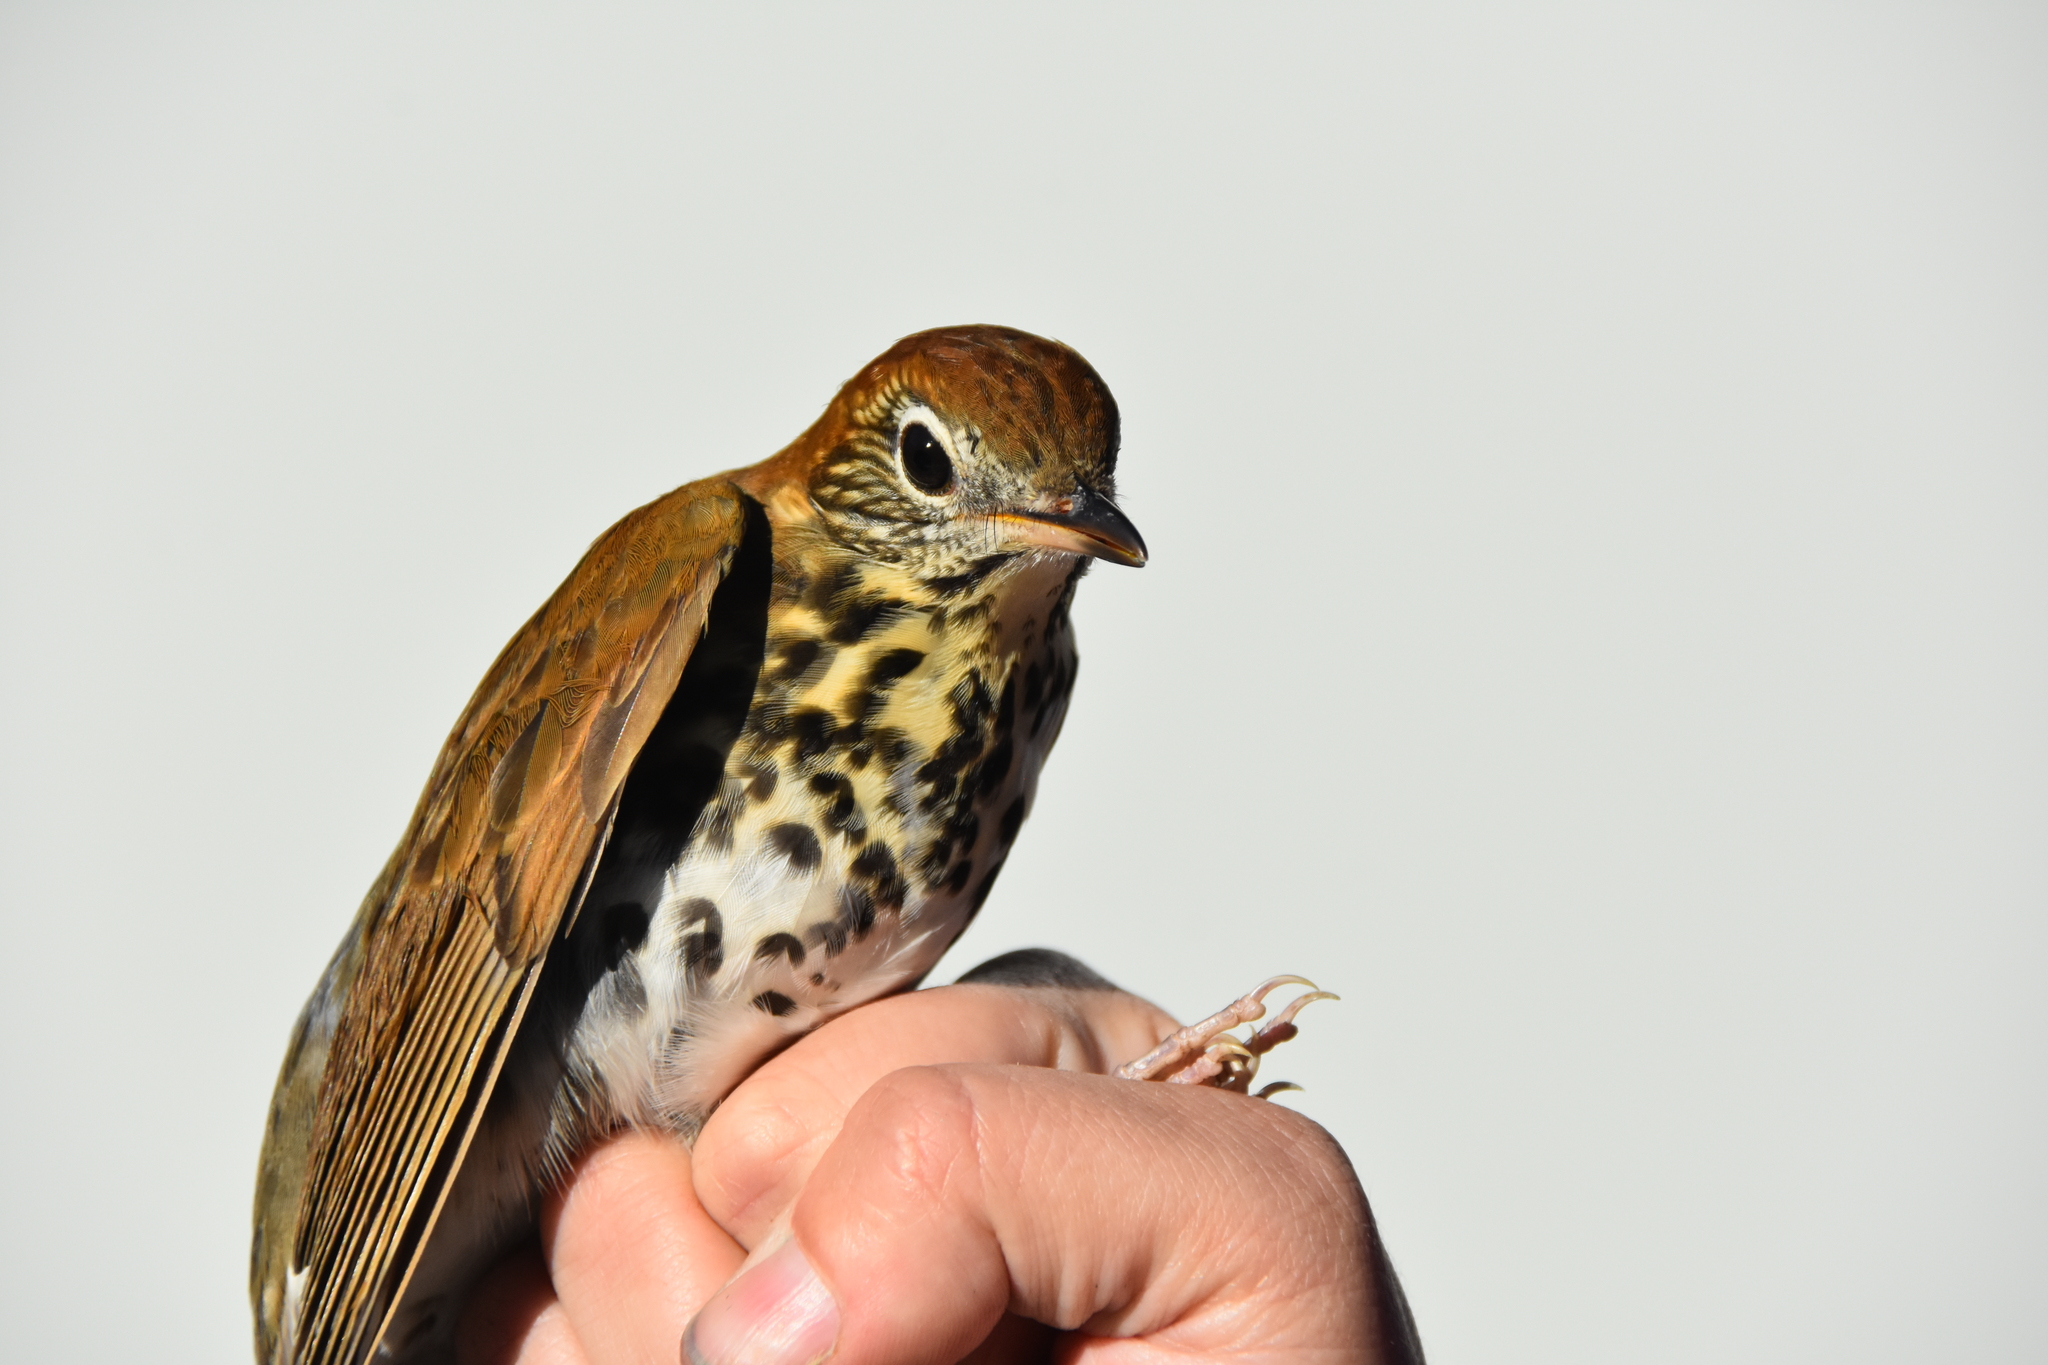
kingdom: Animalia
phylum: Chordata
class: Aves
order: Passeriformes
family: Turdidae
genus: Hylocichla
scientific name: Hylocichla mustelina
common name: Wood thrush
